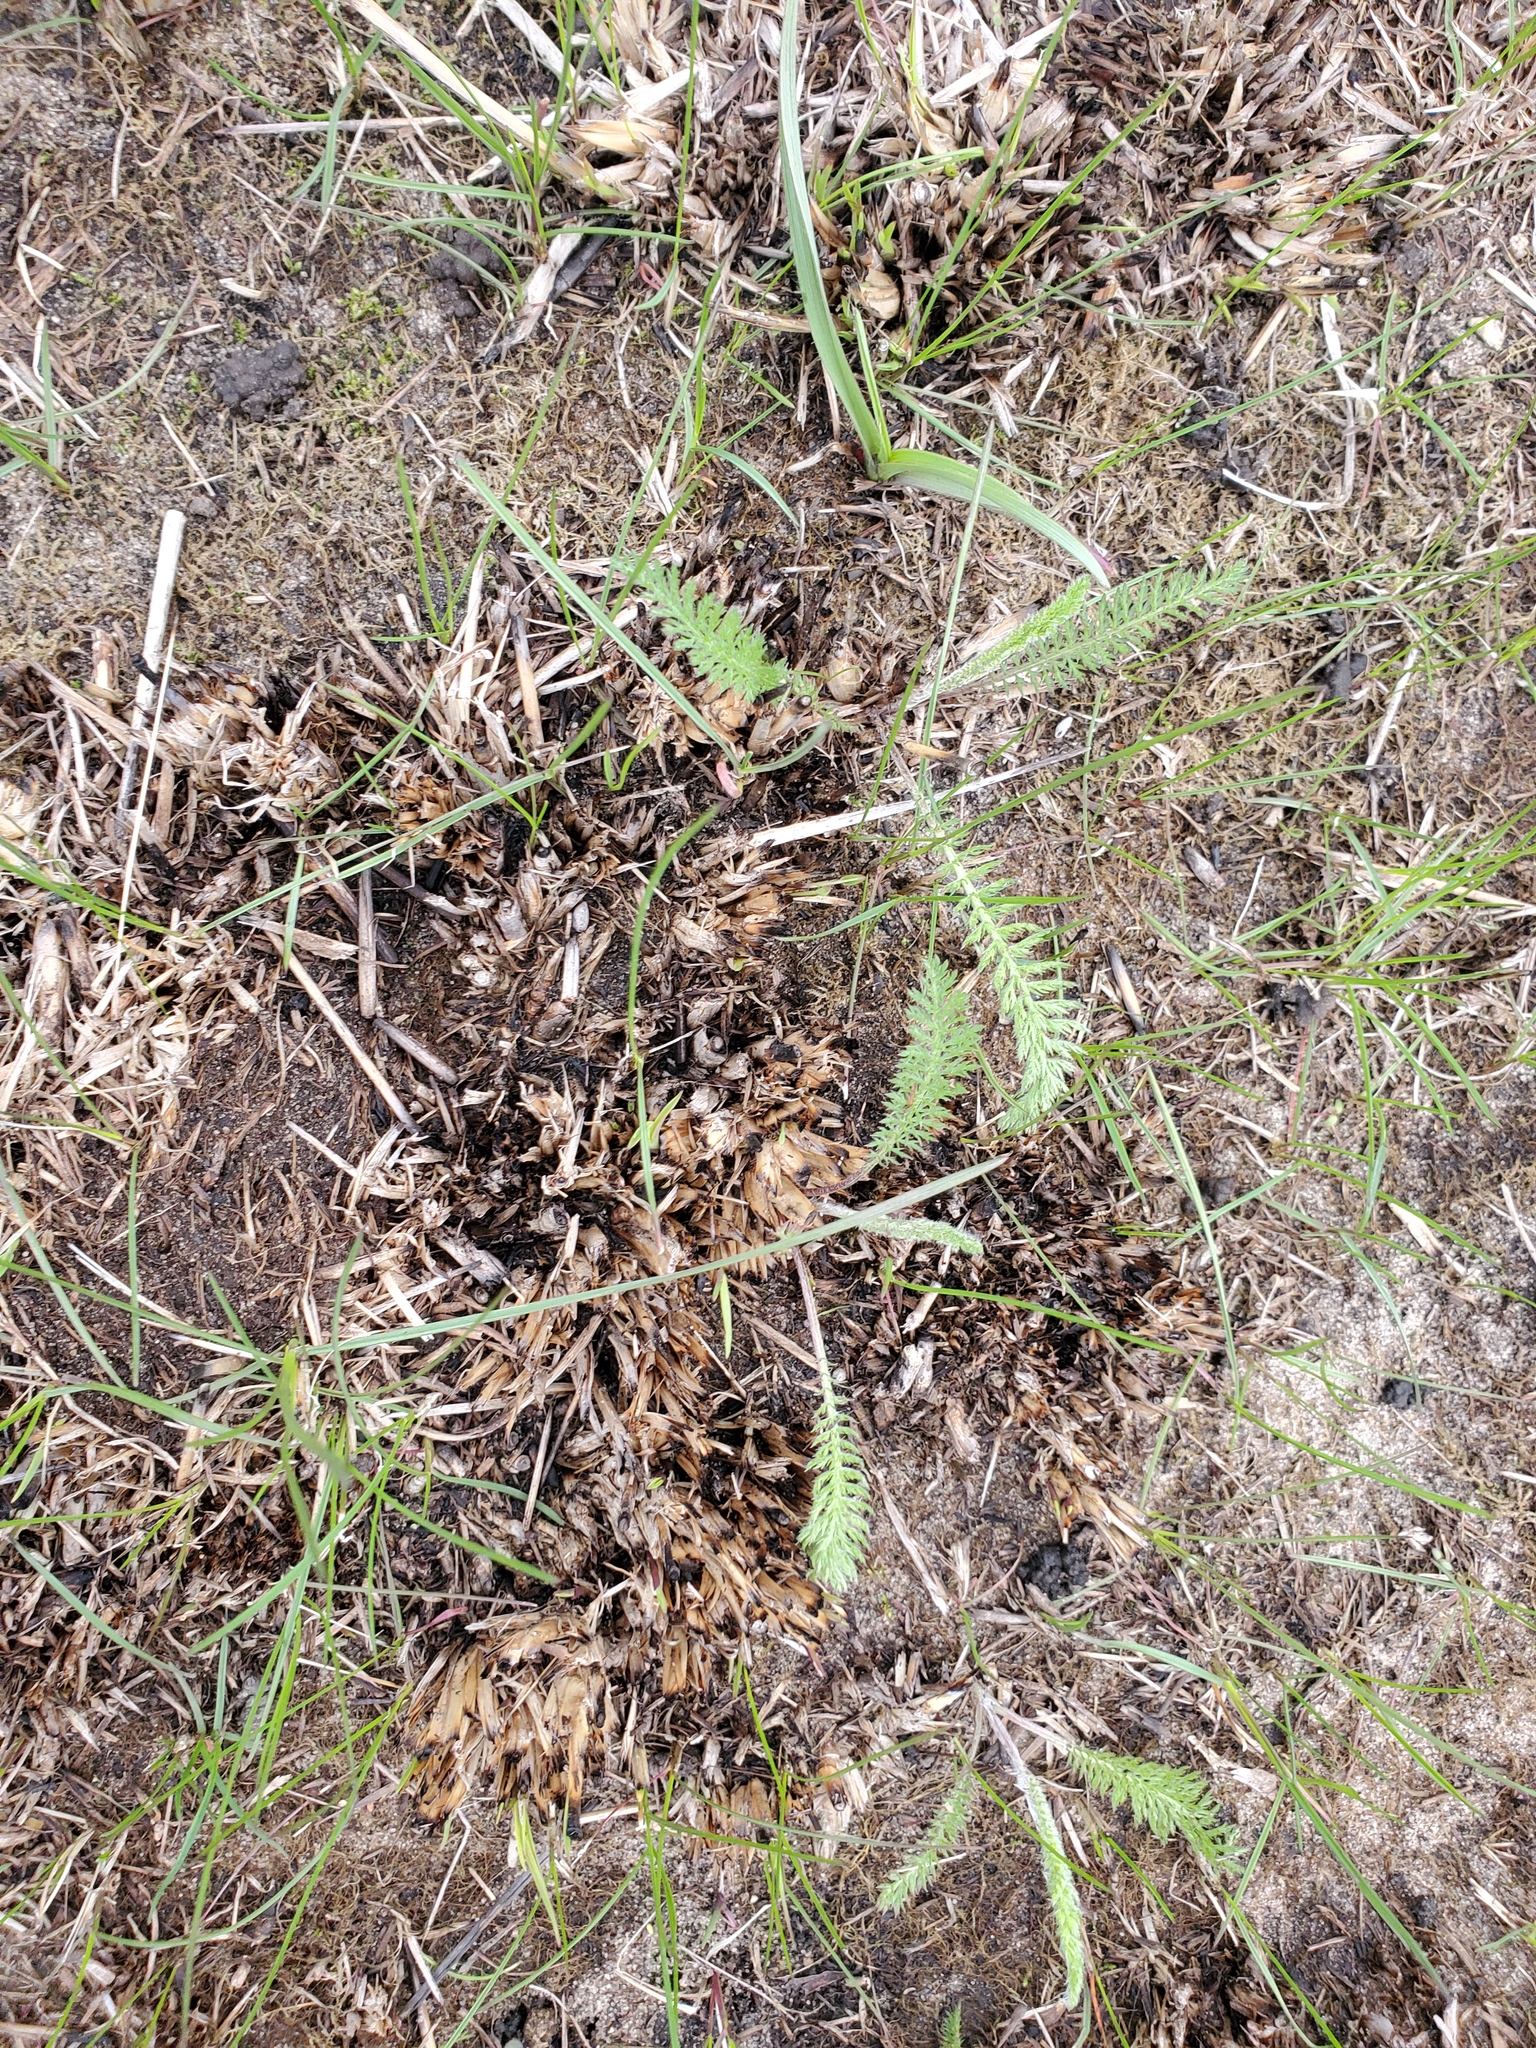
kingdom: Plantae
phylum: Tracheophyta
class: Magnoliopsida
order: Asterales
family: Asteraceae
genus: Achillea
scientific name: Achillea millefolium
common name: Yarrow
